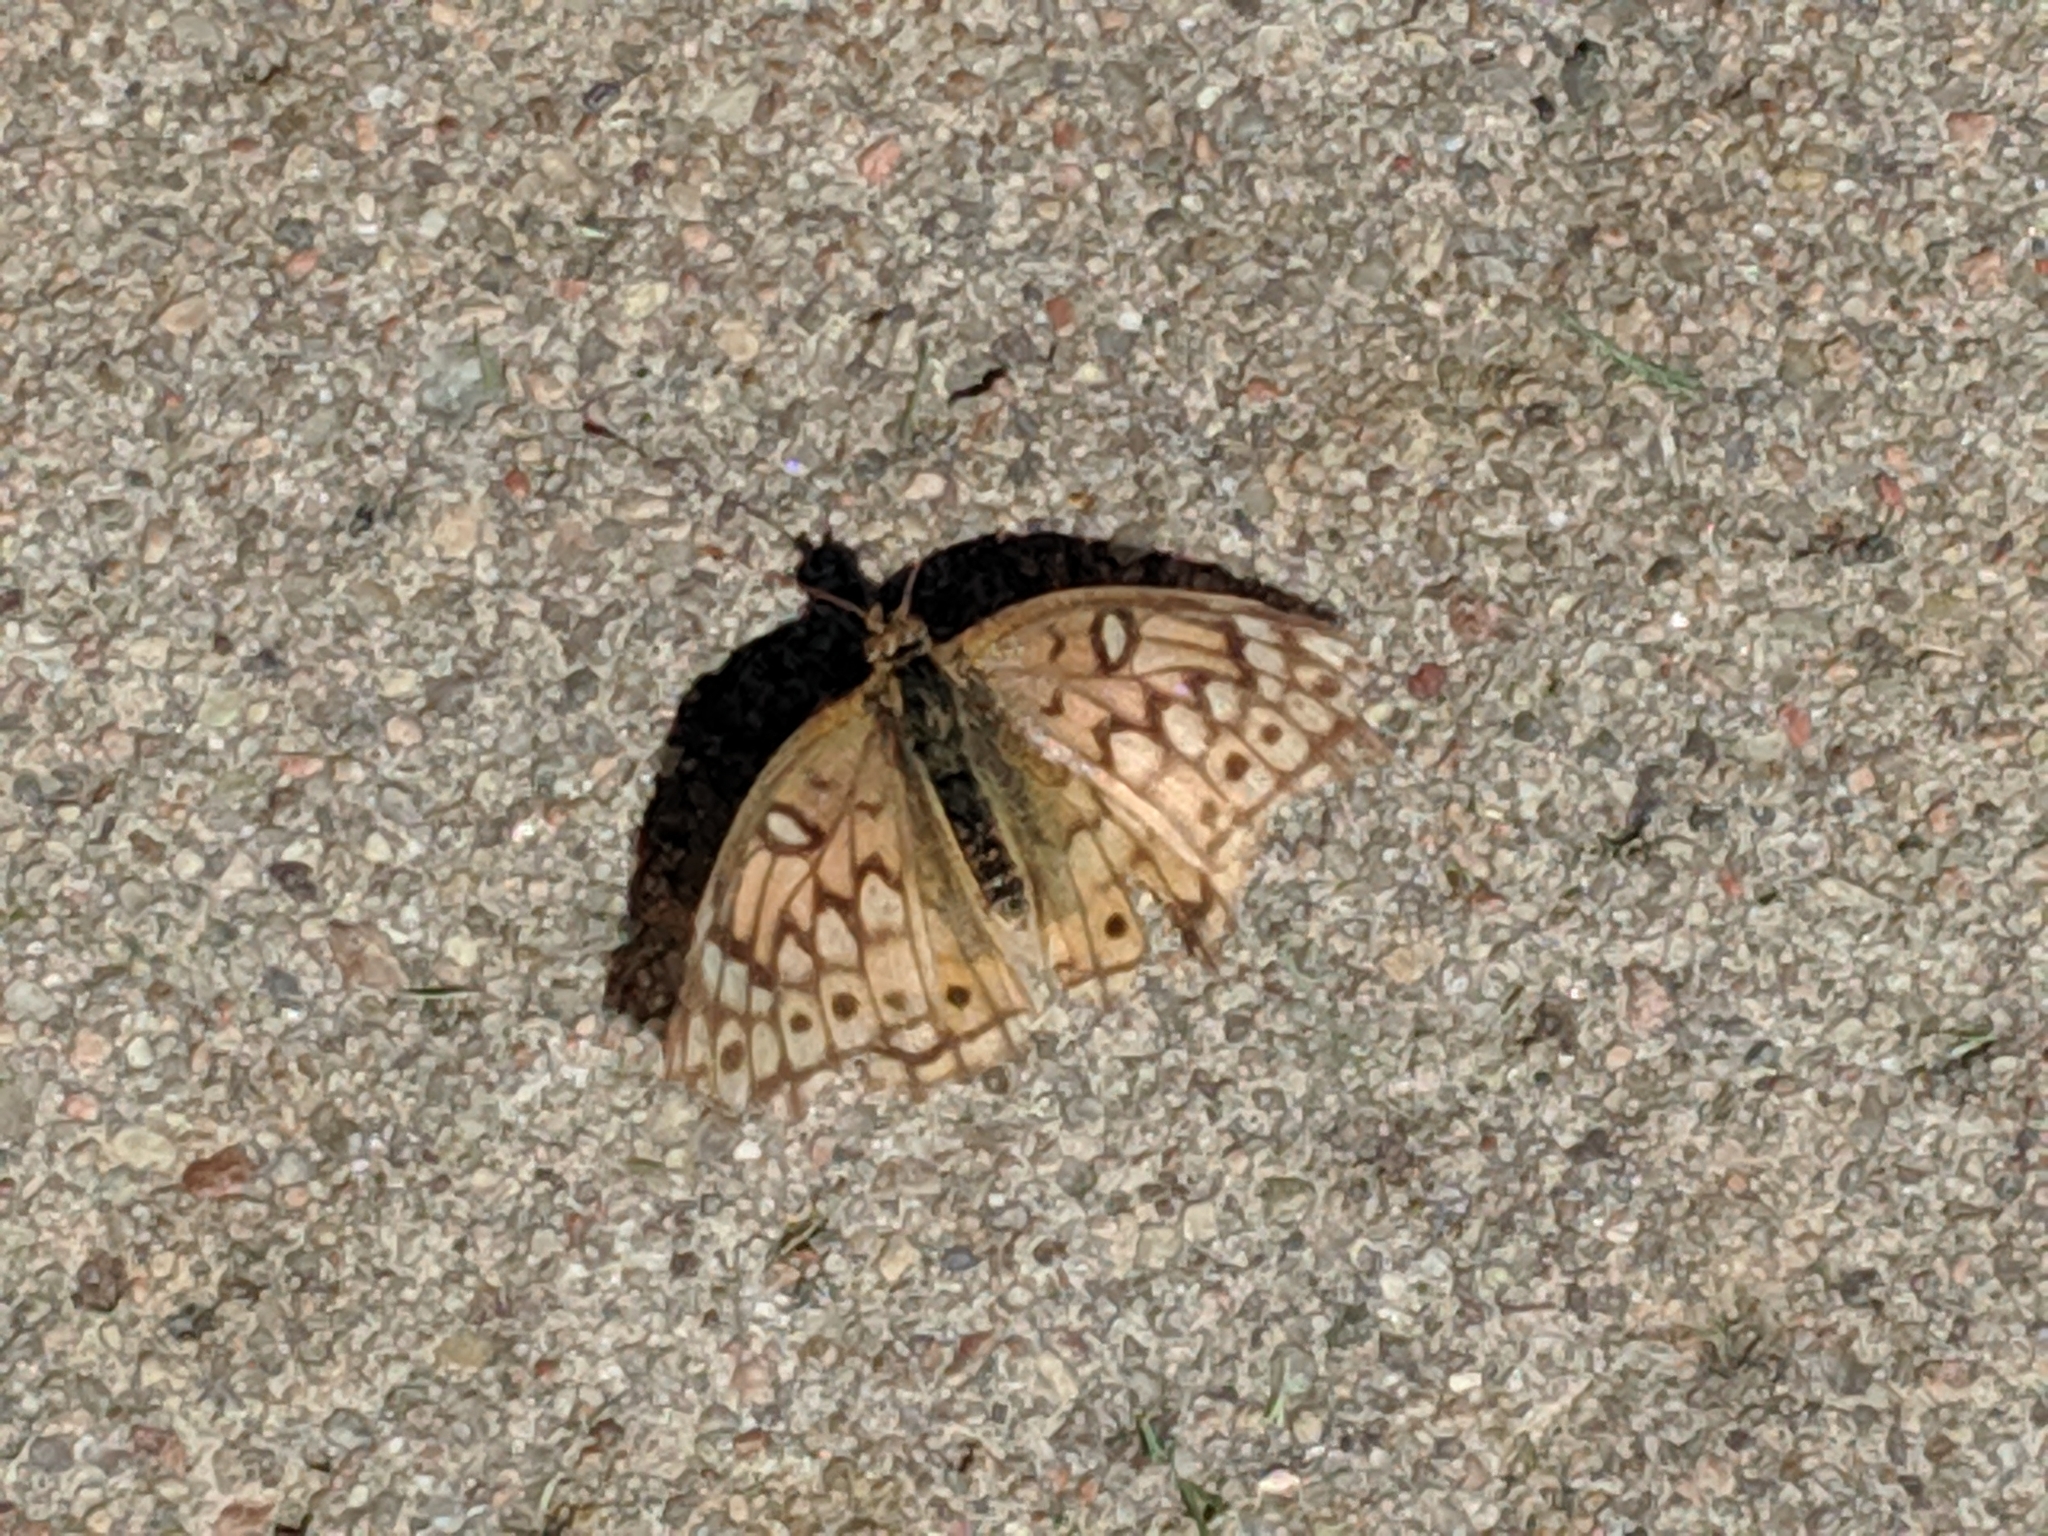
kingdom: Animalia
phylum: Arthropoda
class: Insecta
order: Lepidoptera
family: Nymphalidae
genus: Euptoieta
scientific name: Euptoieta claudia
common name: Variegated fritillary
